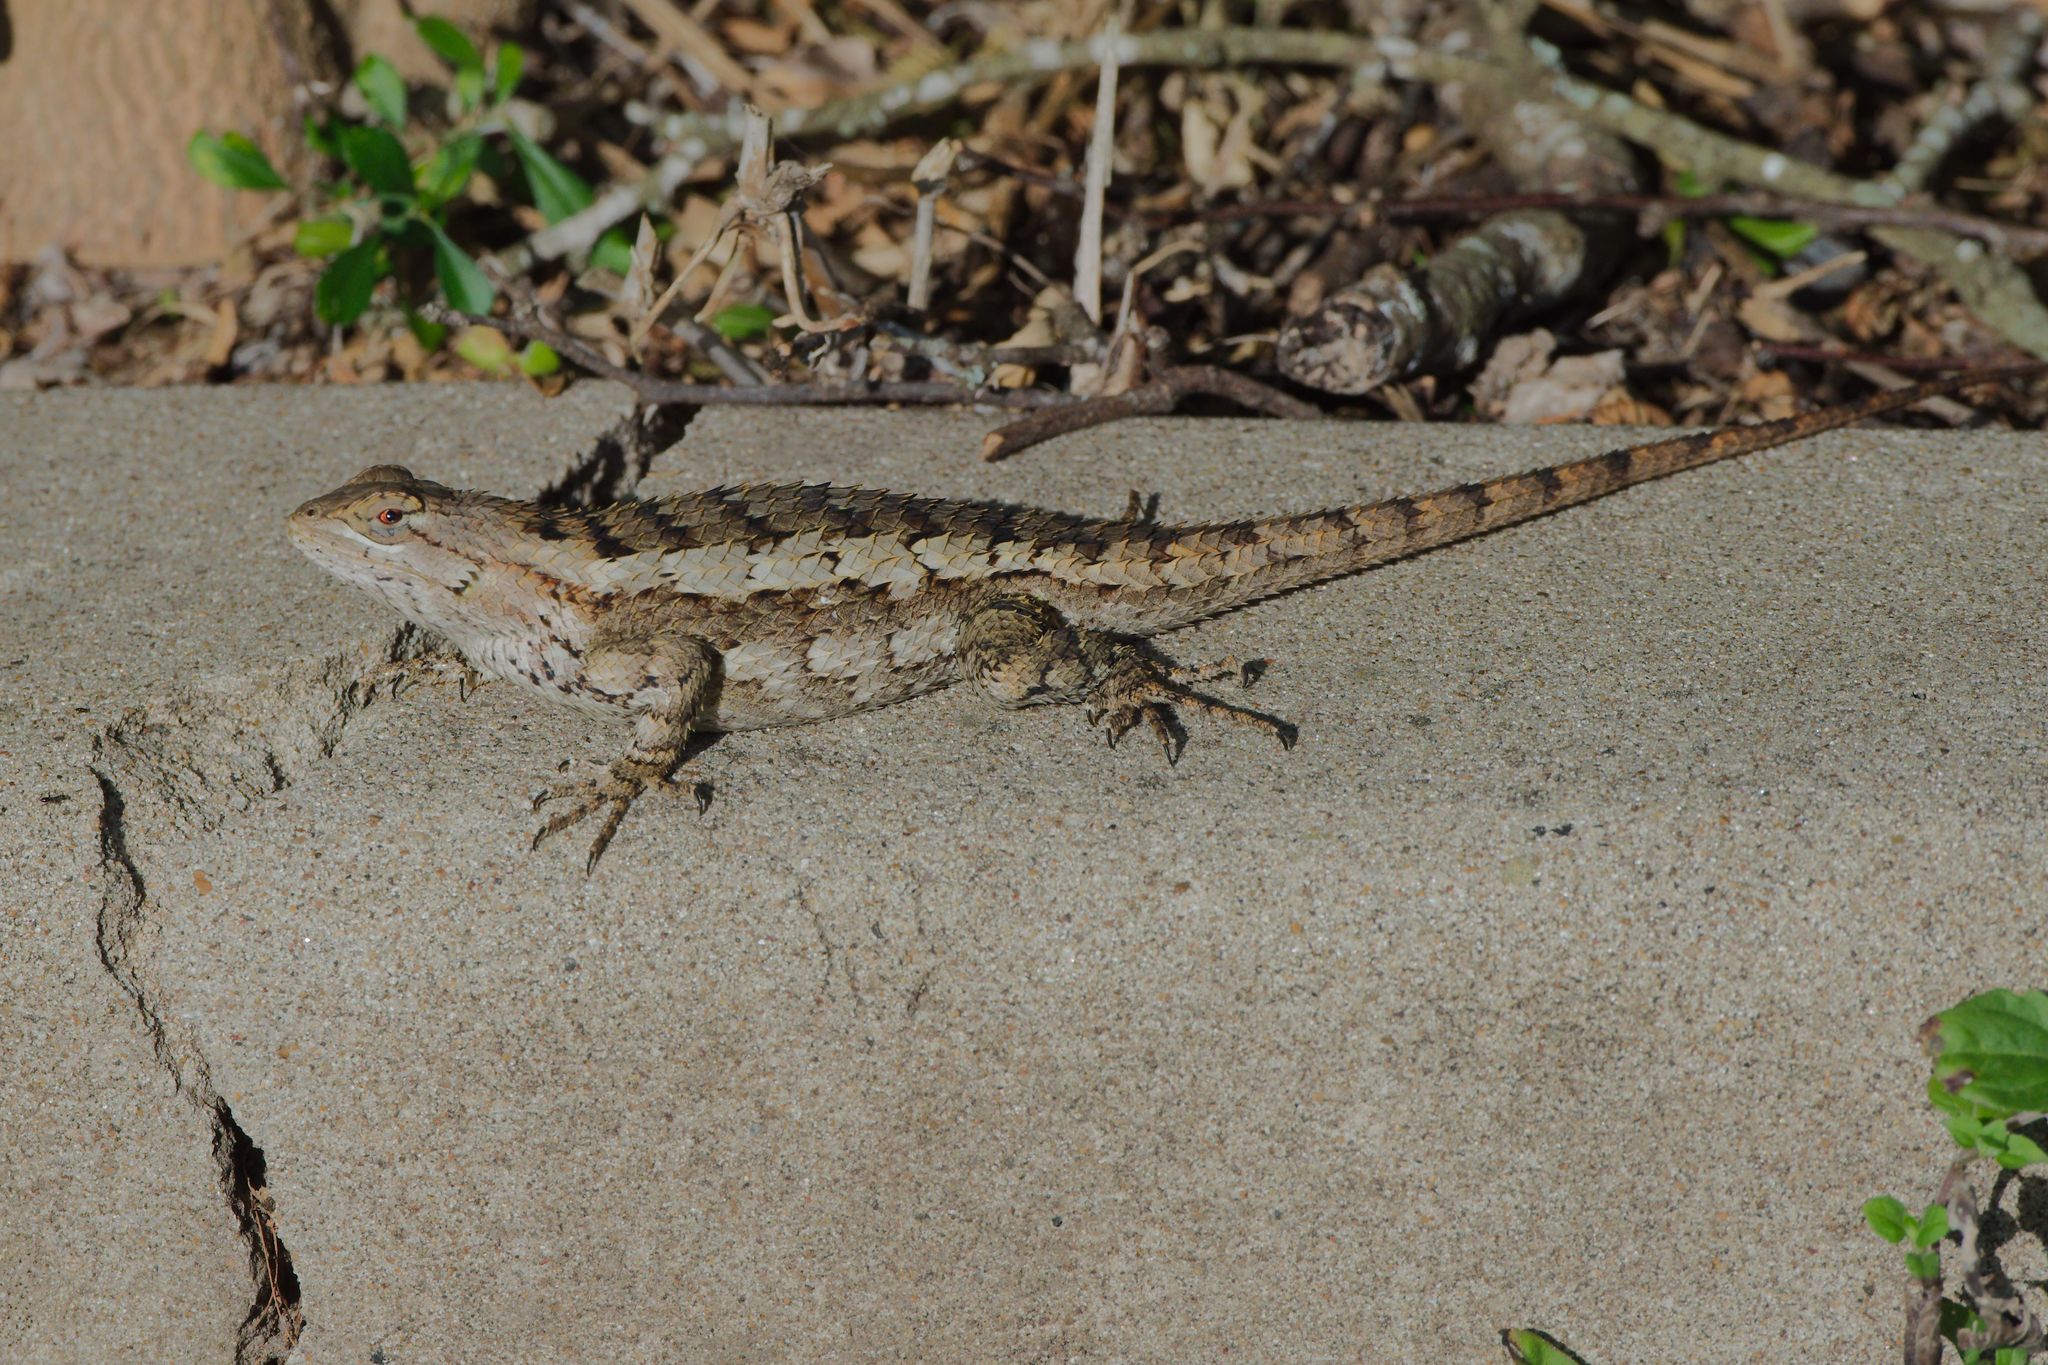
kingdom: Animalia
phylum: Chordata
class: Squamata
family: Phrynosomatidae
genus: Sceloporus
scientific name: Sceloporus olivaceus
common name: Texas spiny lizard
